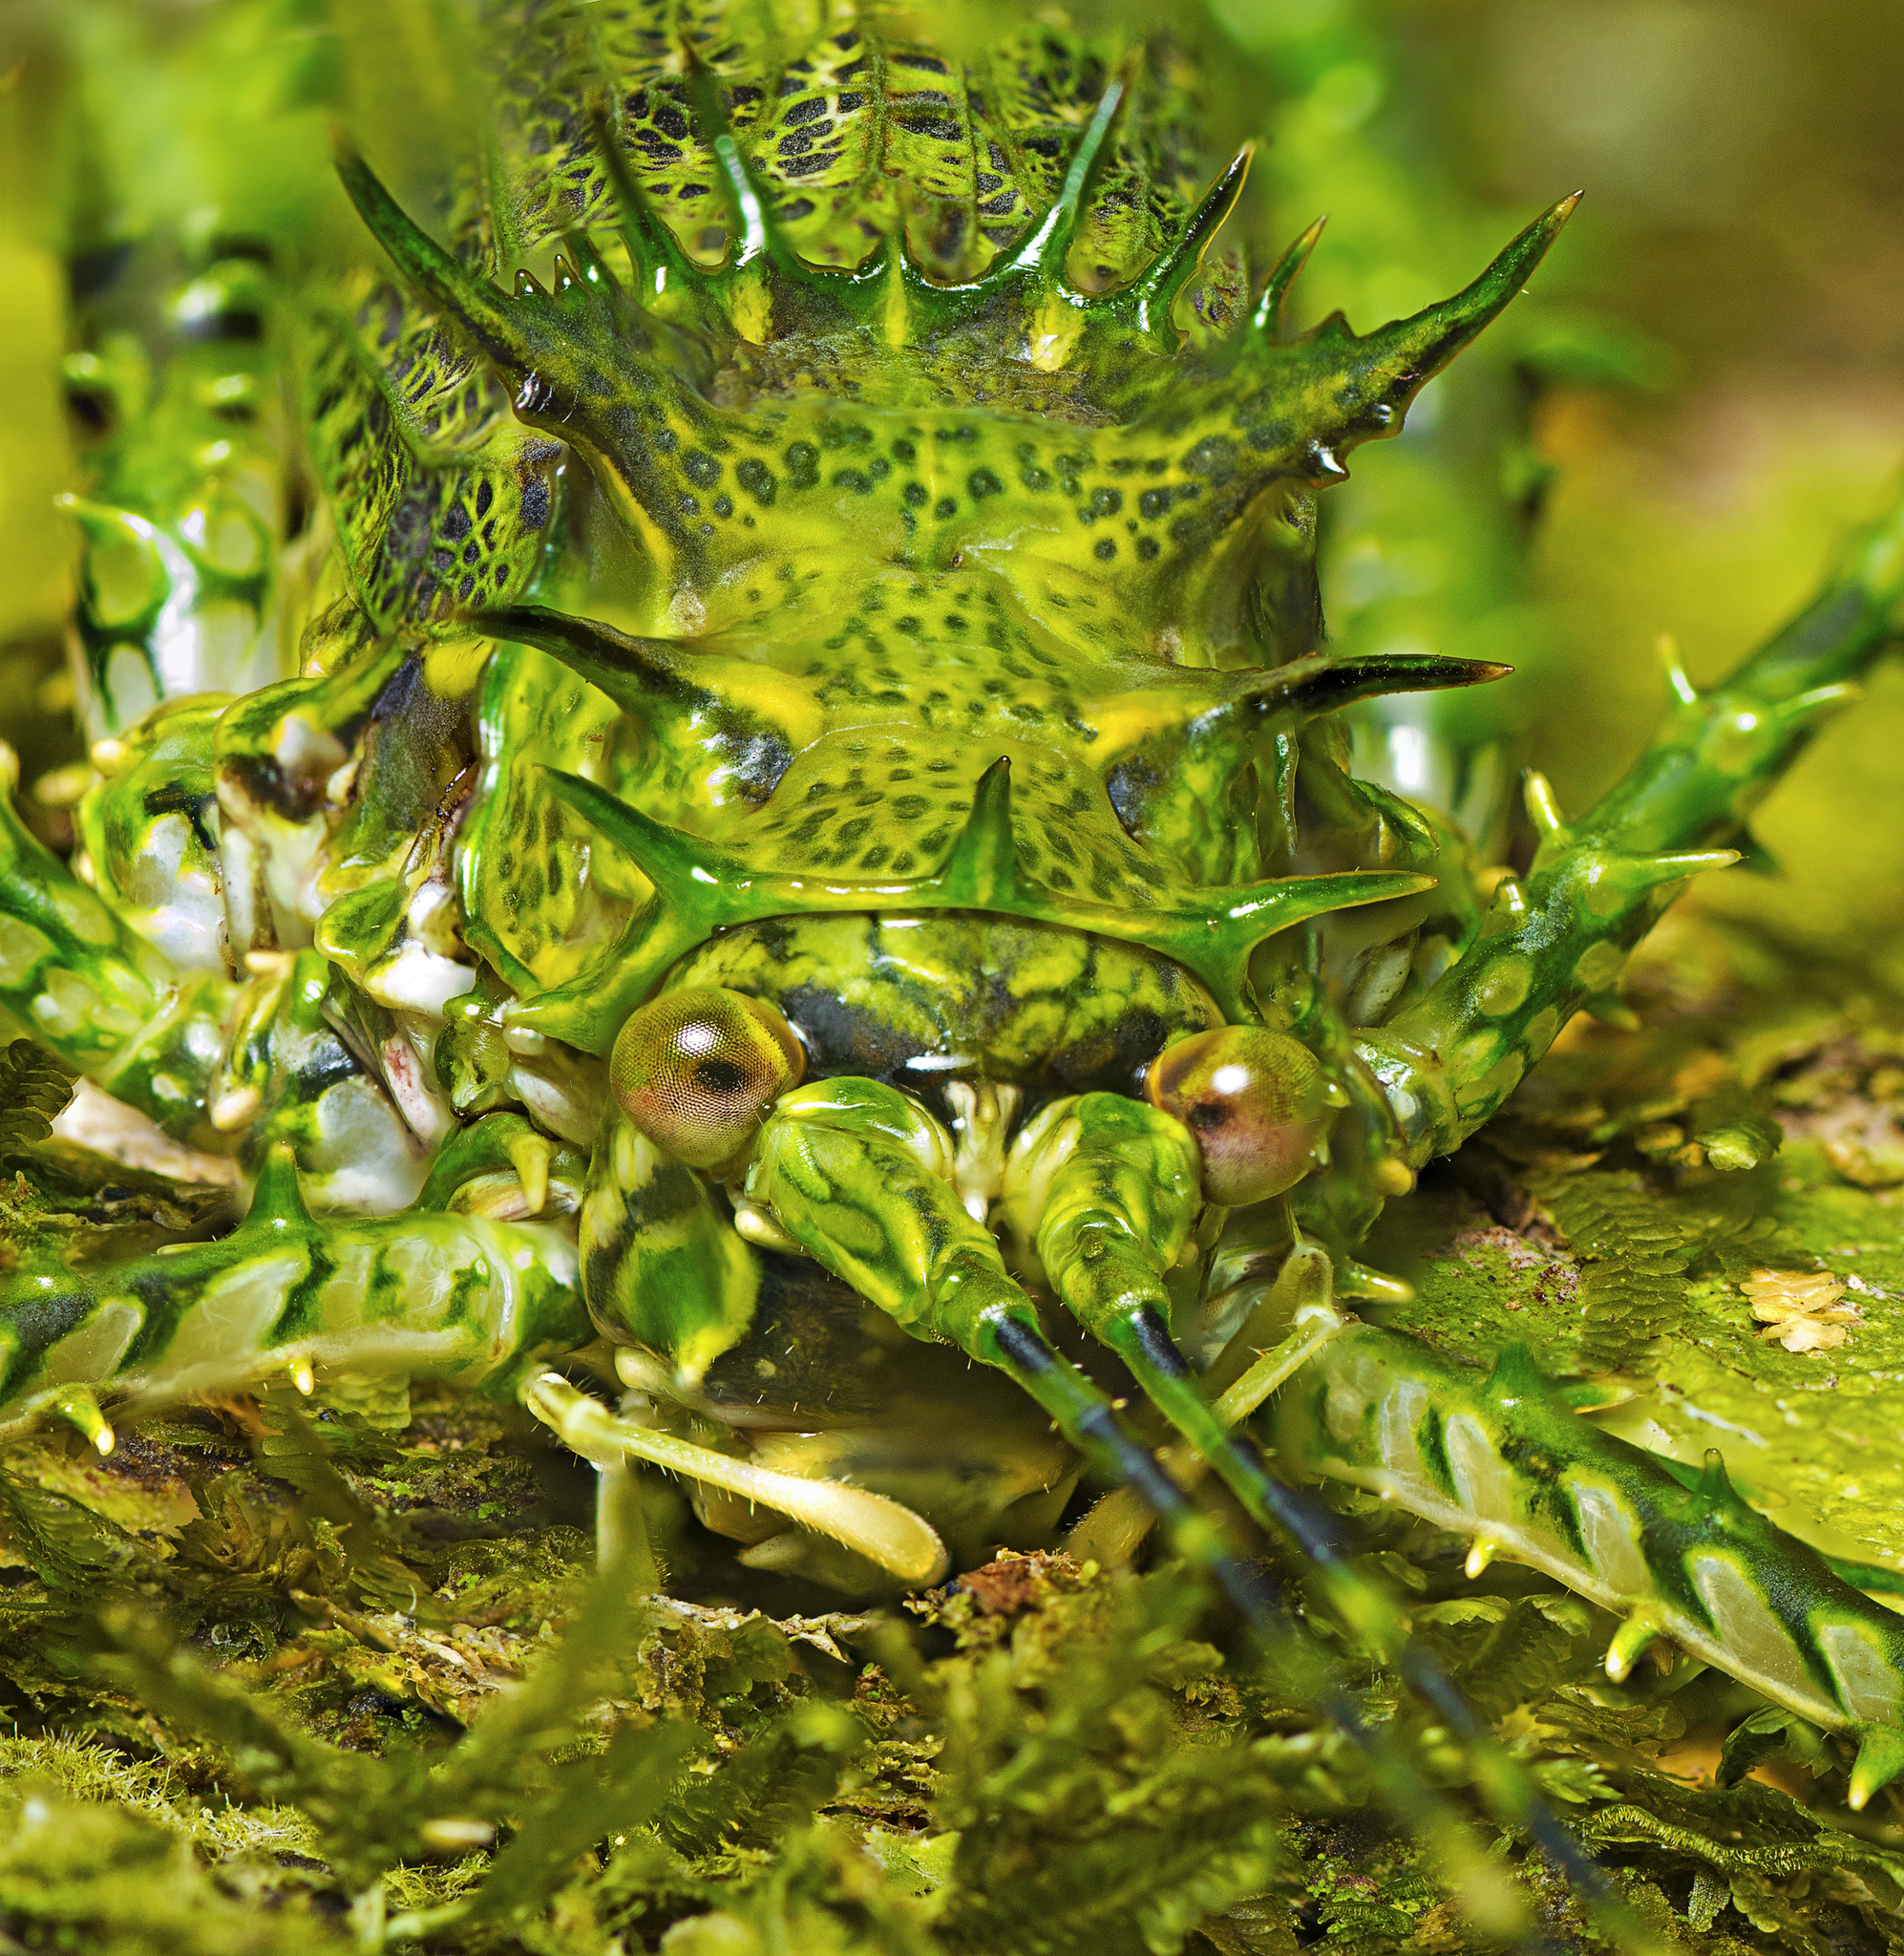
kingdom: Animalia
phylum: Arthropoda
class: Insecta
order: Orthoptera
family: Tettigoniidae
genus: Phricta
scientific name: Phricta aberrans
